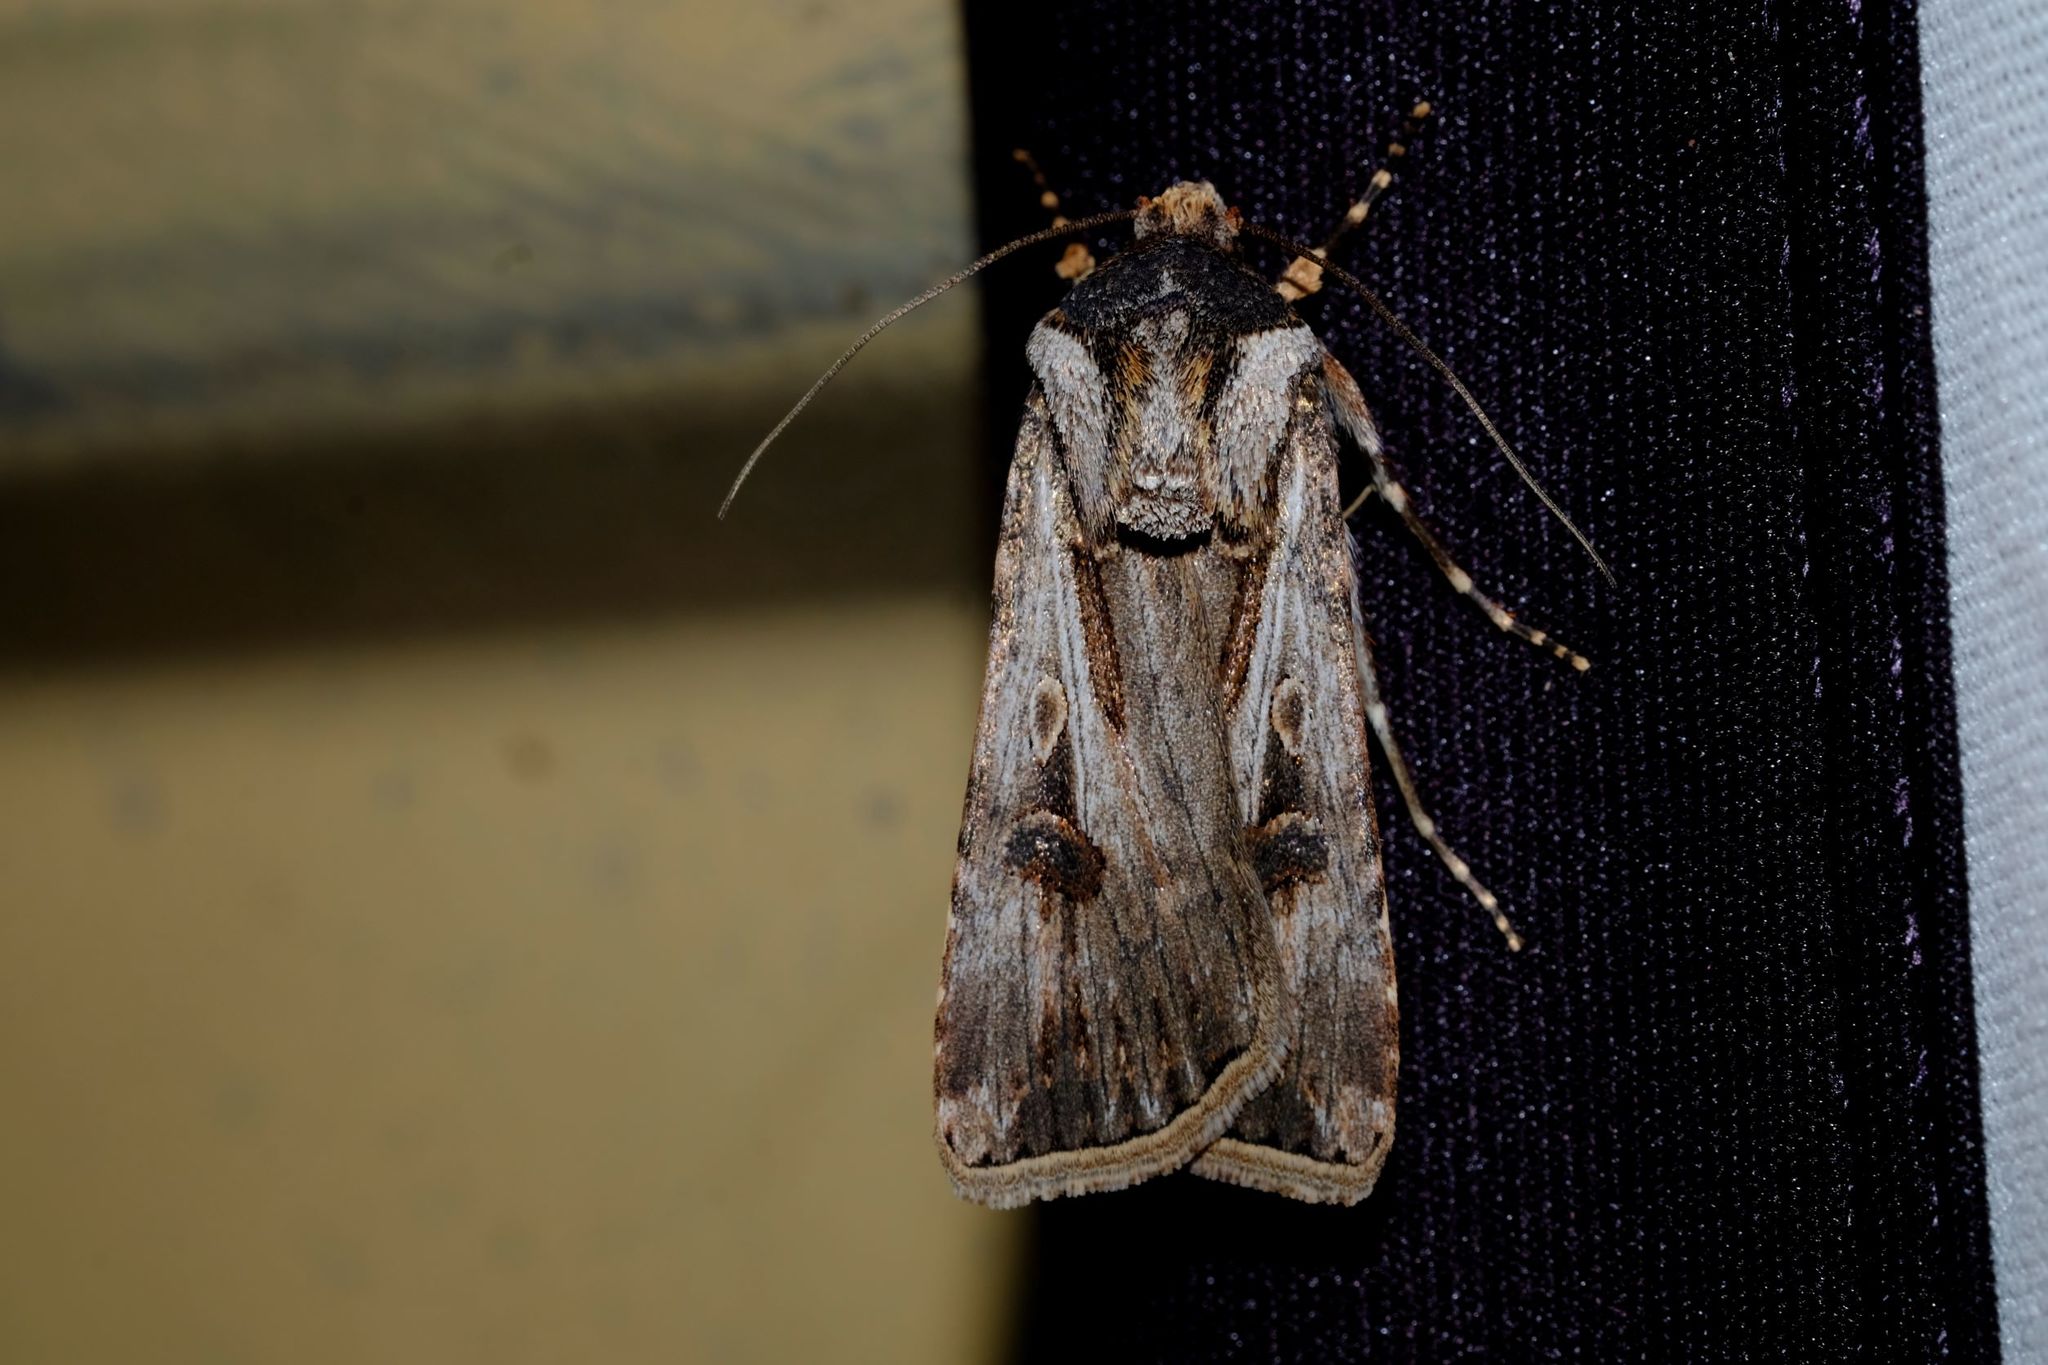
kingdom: Animalia
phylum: Arthropoda
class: Insecta
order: Lepidoptera
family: Noctuidae
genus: Agrotis
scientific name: Agrotis munda
